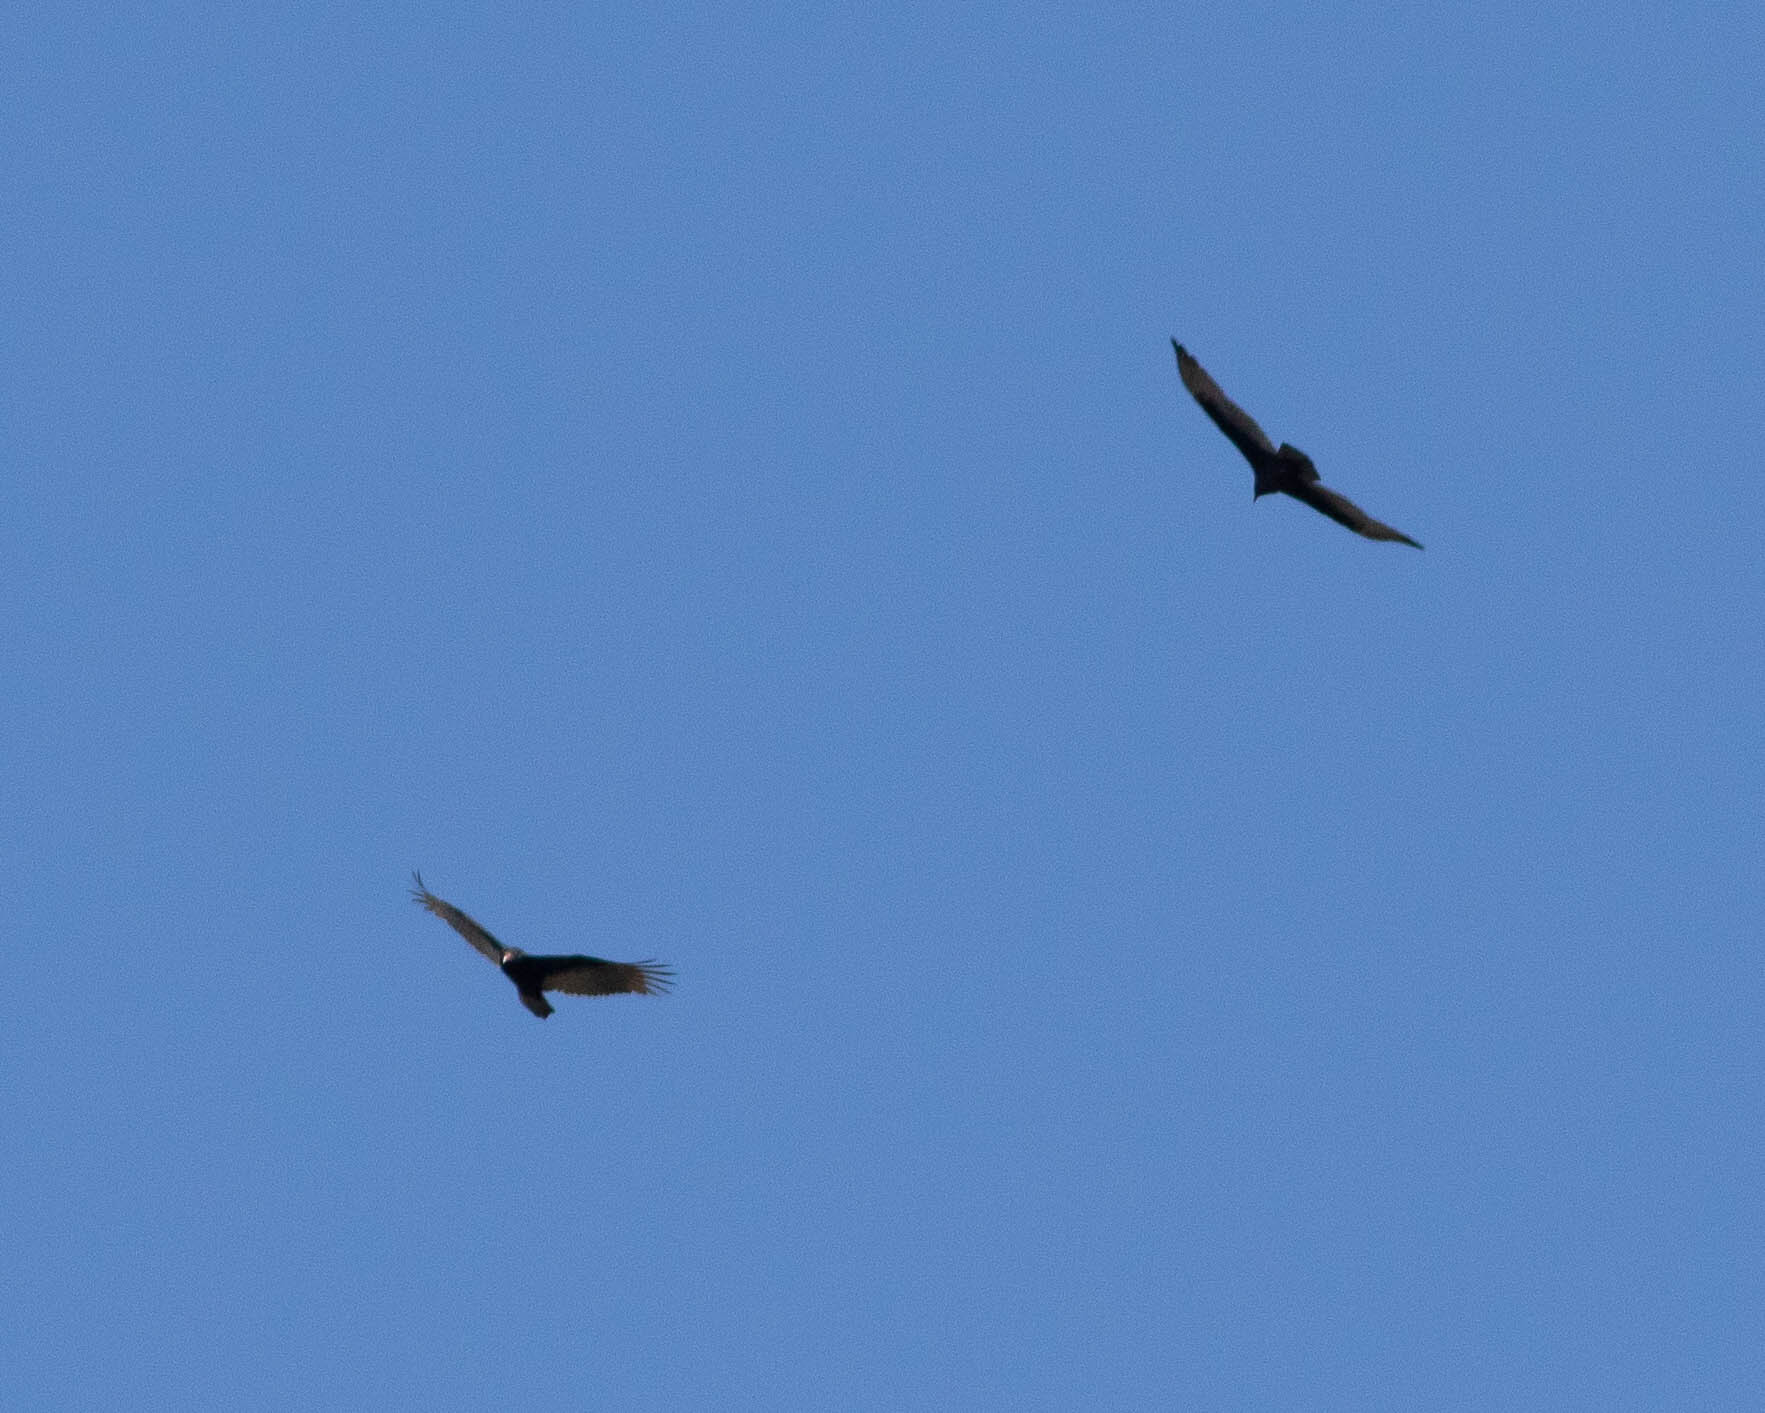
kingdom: Animalia
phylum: Chordata
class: Aves
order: Accipitriformes
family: Cathartidae
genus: Cathartes
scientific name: Cathartes aura
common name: Turkey vulture
